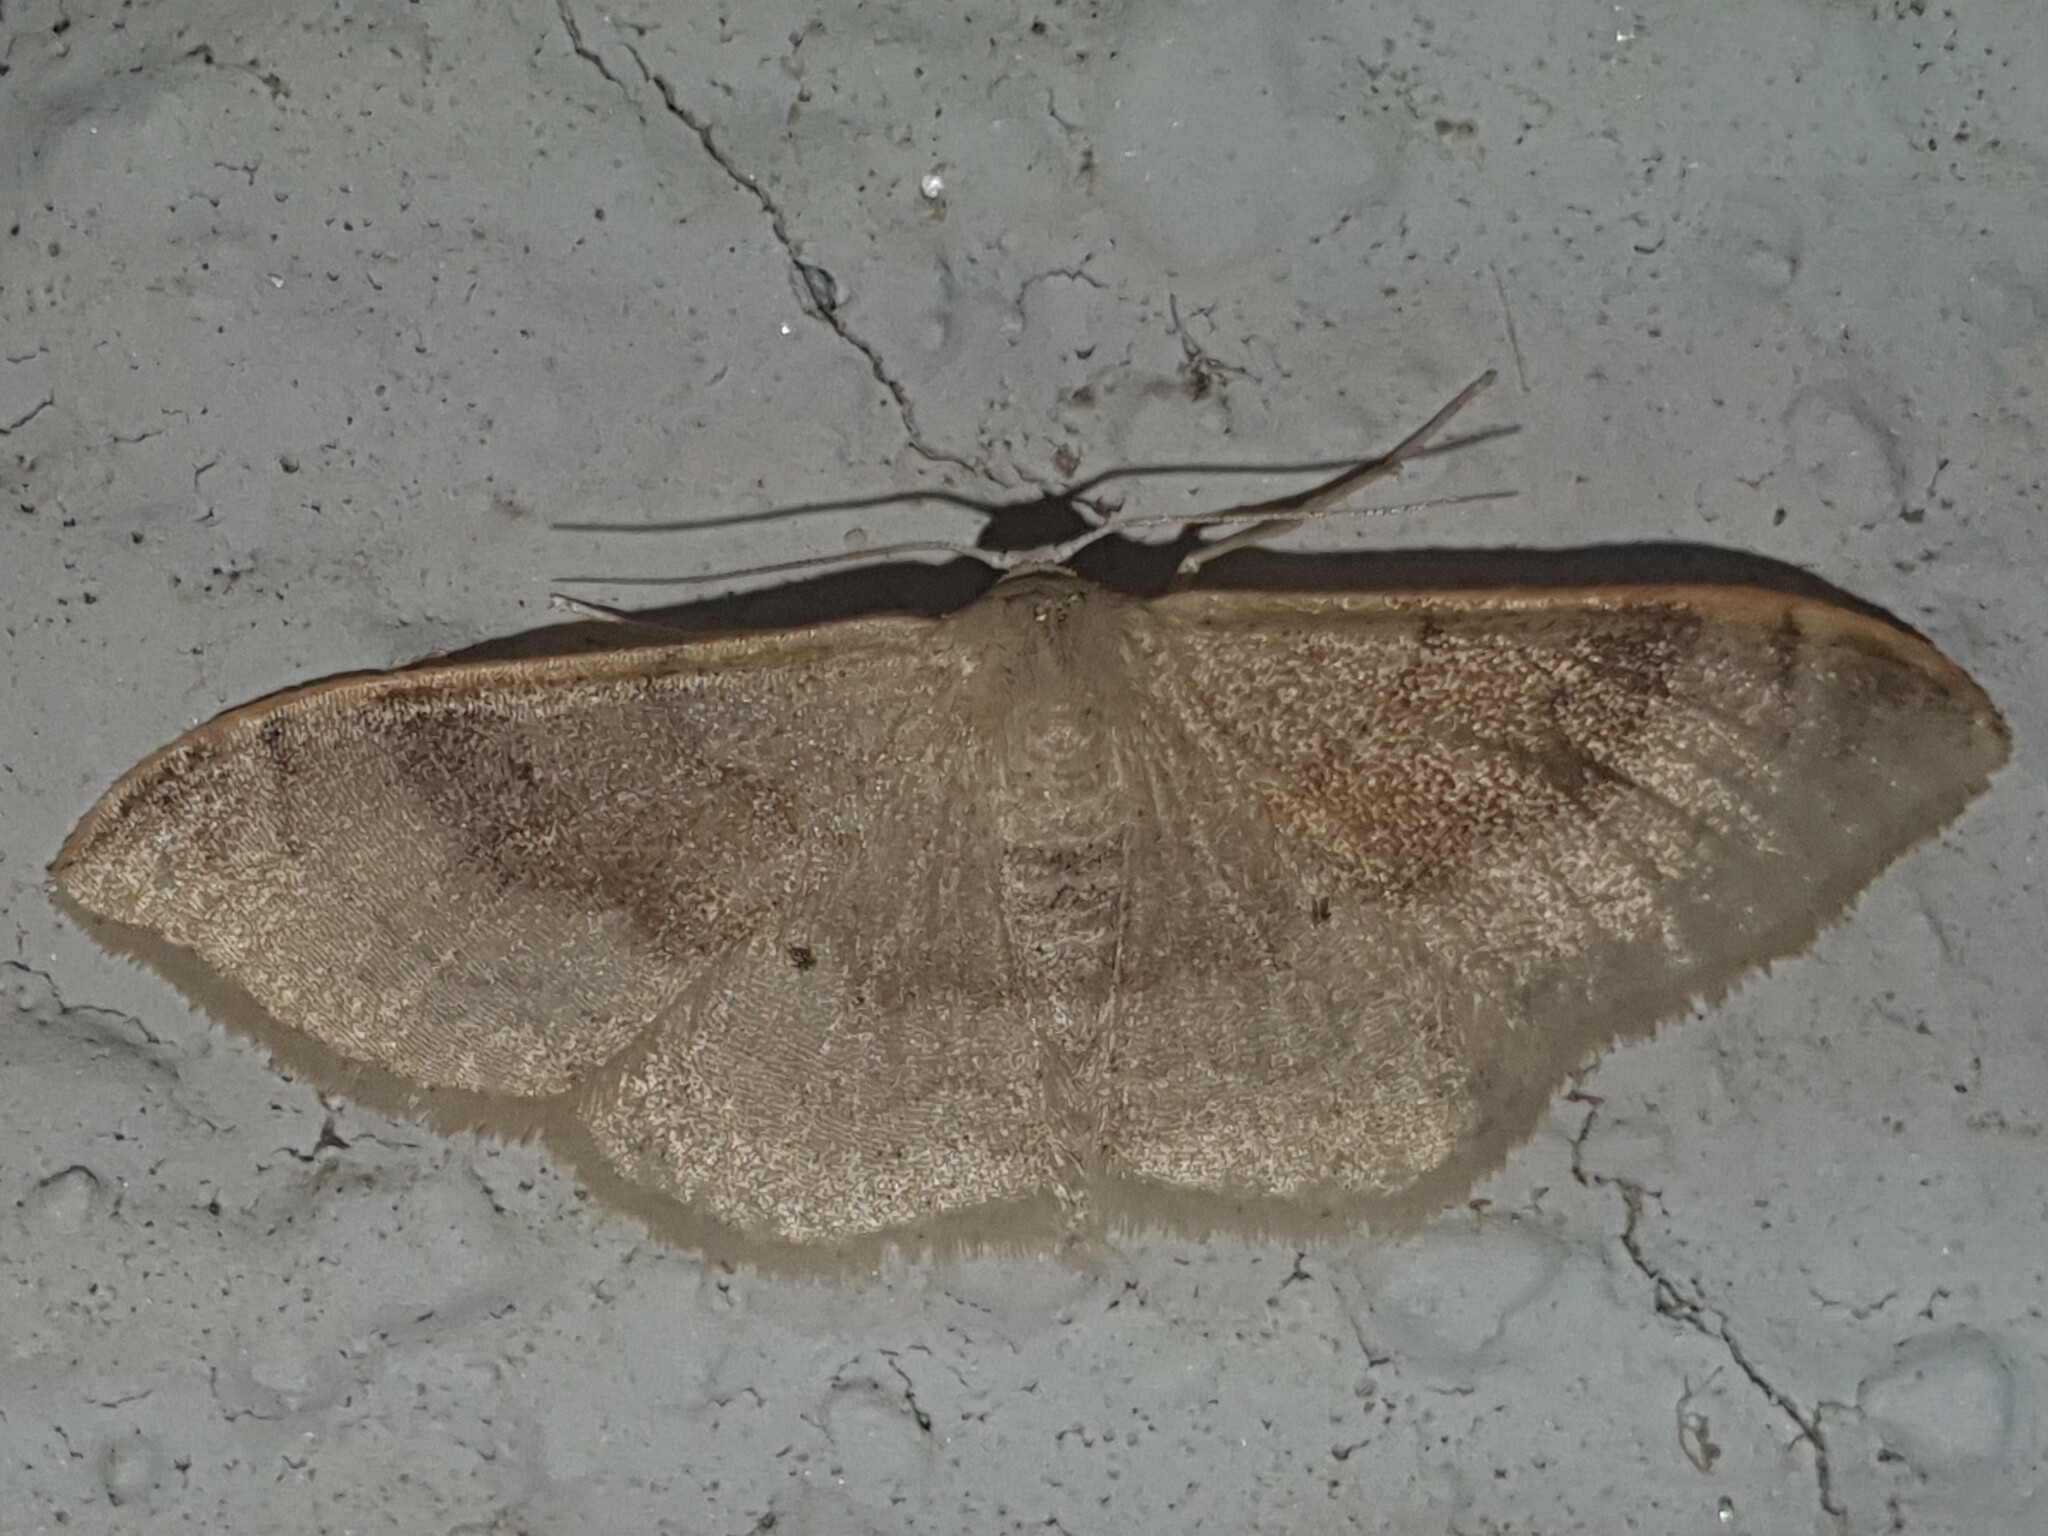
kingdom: Animalia
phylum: Arthropoda
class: Insecta
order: Lepidoptera
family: Geometridae
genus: Idaea
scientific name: Idaea degeneraria
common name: Portland ribbon wave
